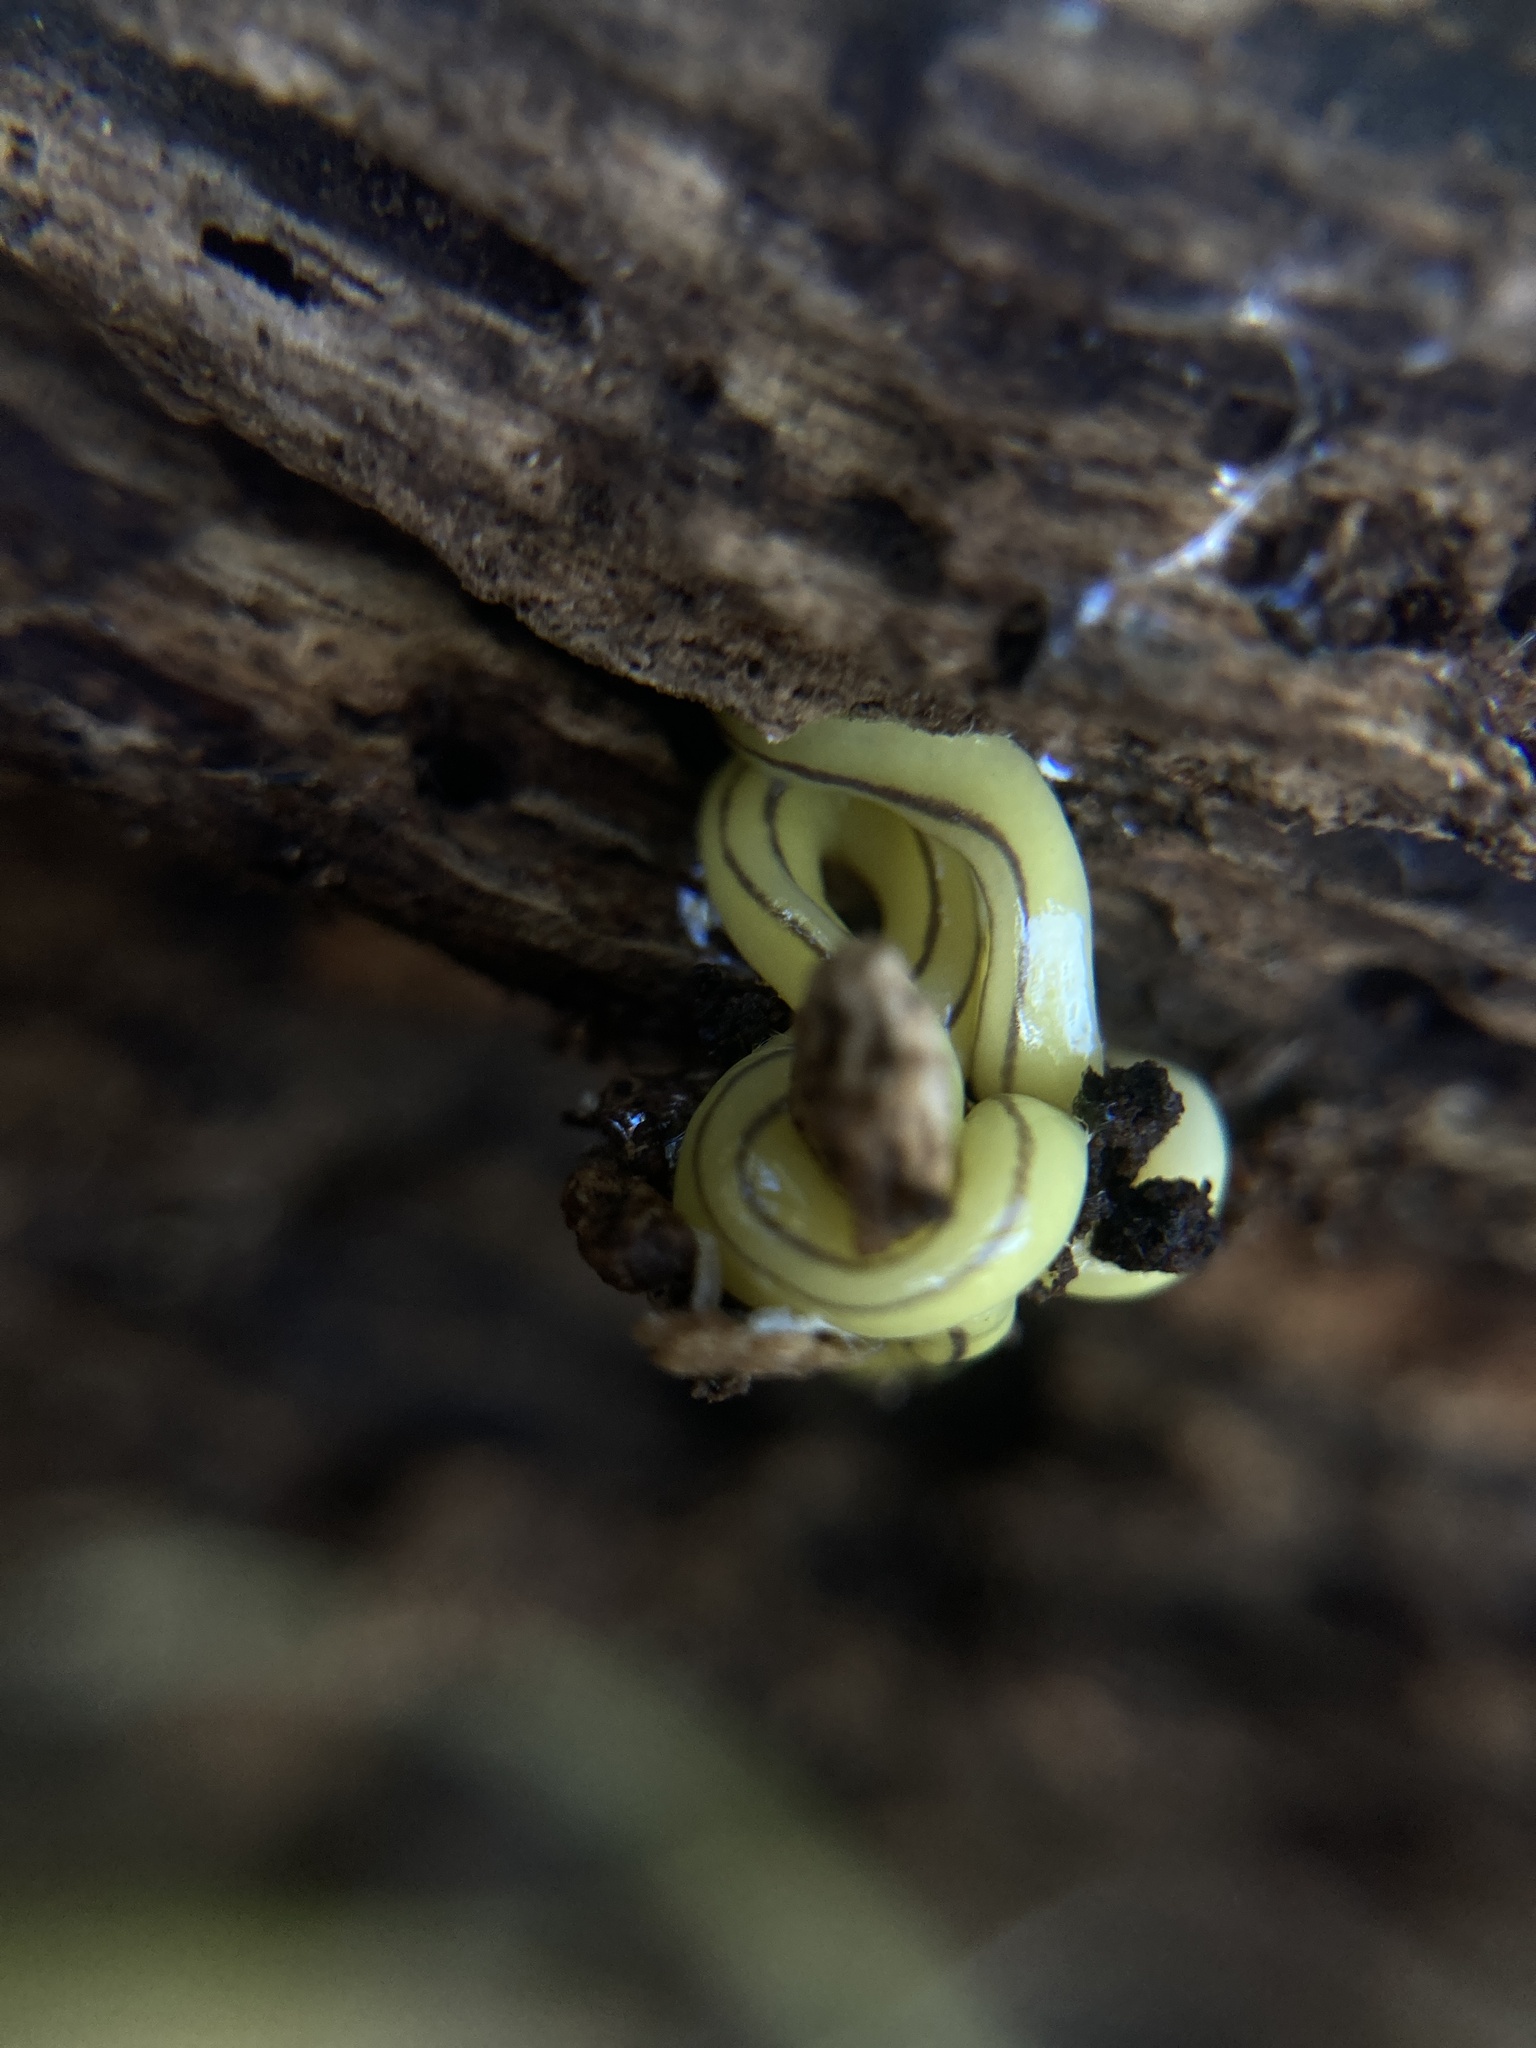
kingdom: Animalia
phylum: Platyhelminthes
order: Tricladida
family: Geoplanidae
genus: Caenoplana
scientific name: Caenoplana hillii
